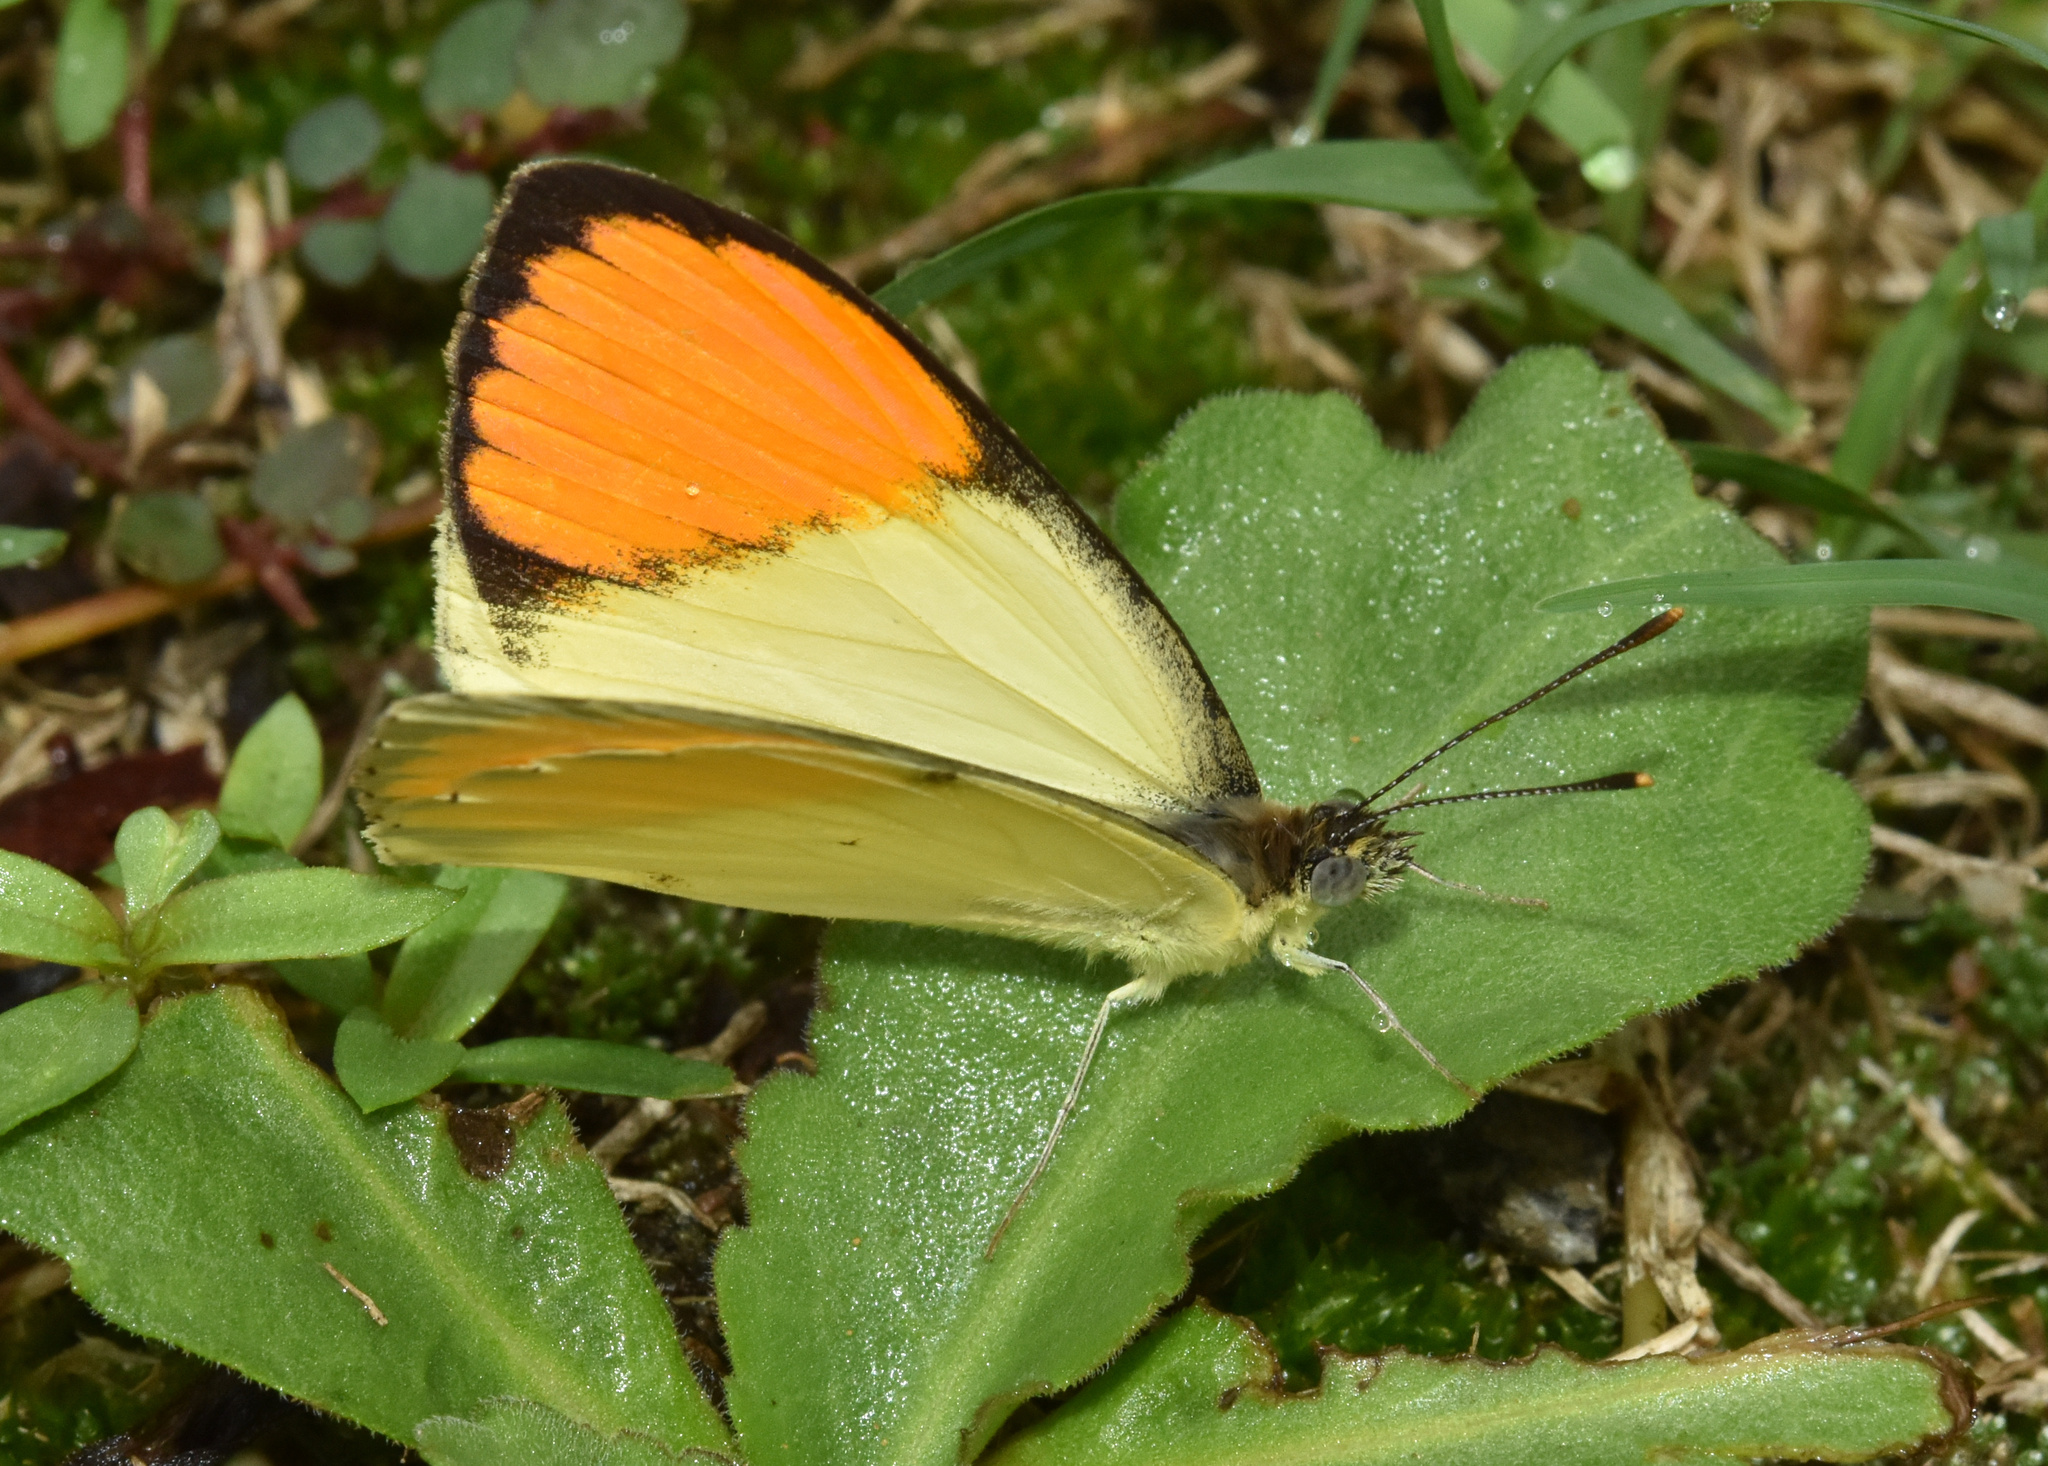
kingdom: Animalia
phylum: Arthropoda
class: Insecta
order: Lepidoptera
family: Pieridae
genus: Colotis
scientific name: Colotis auxo
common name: Sulphur orange tip
